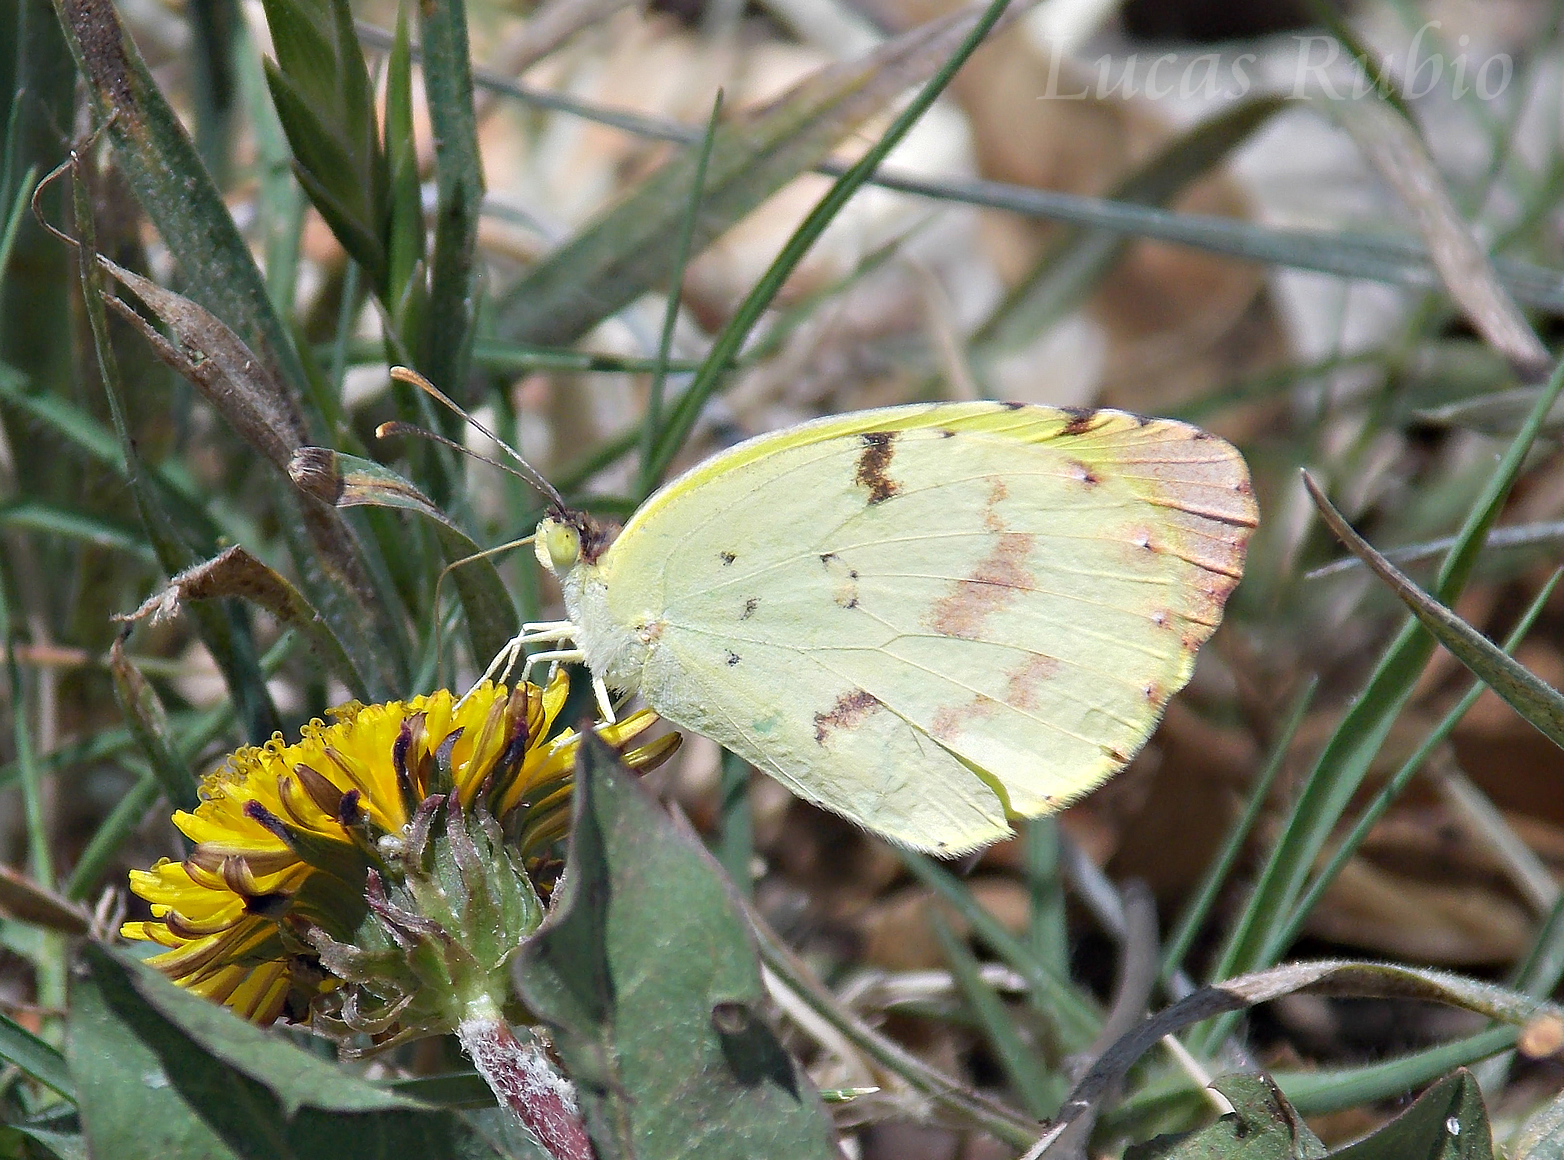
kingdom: Animalia
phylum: Arthropoda
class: Insecta
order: Lepidoptera
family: Pieridae
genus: Teriocolias
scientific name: Teriocolias
